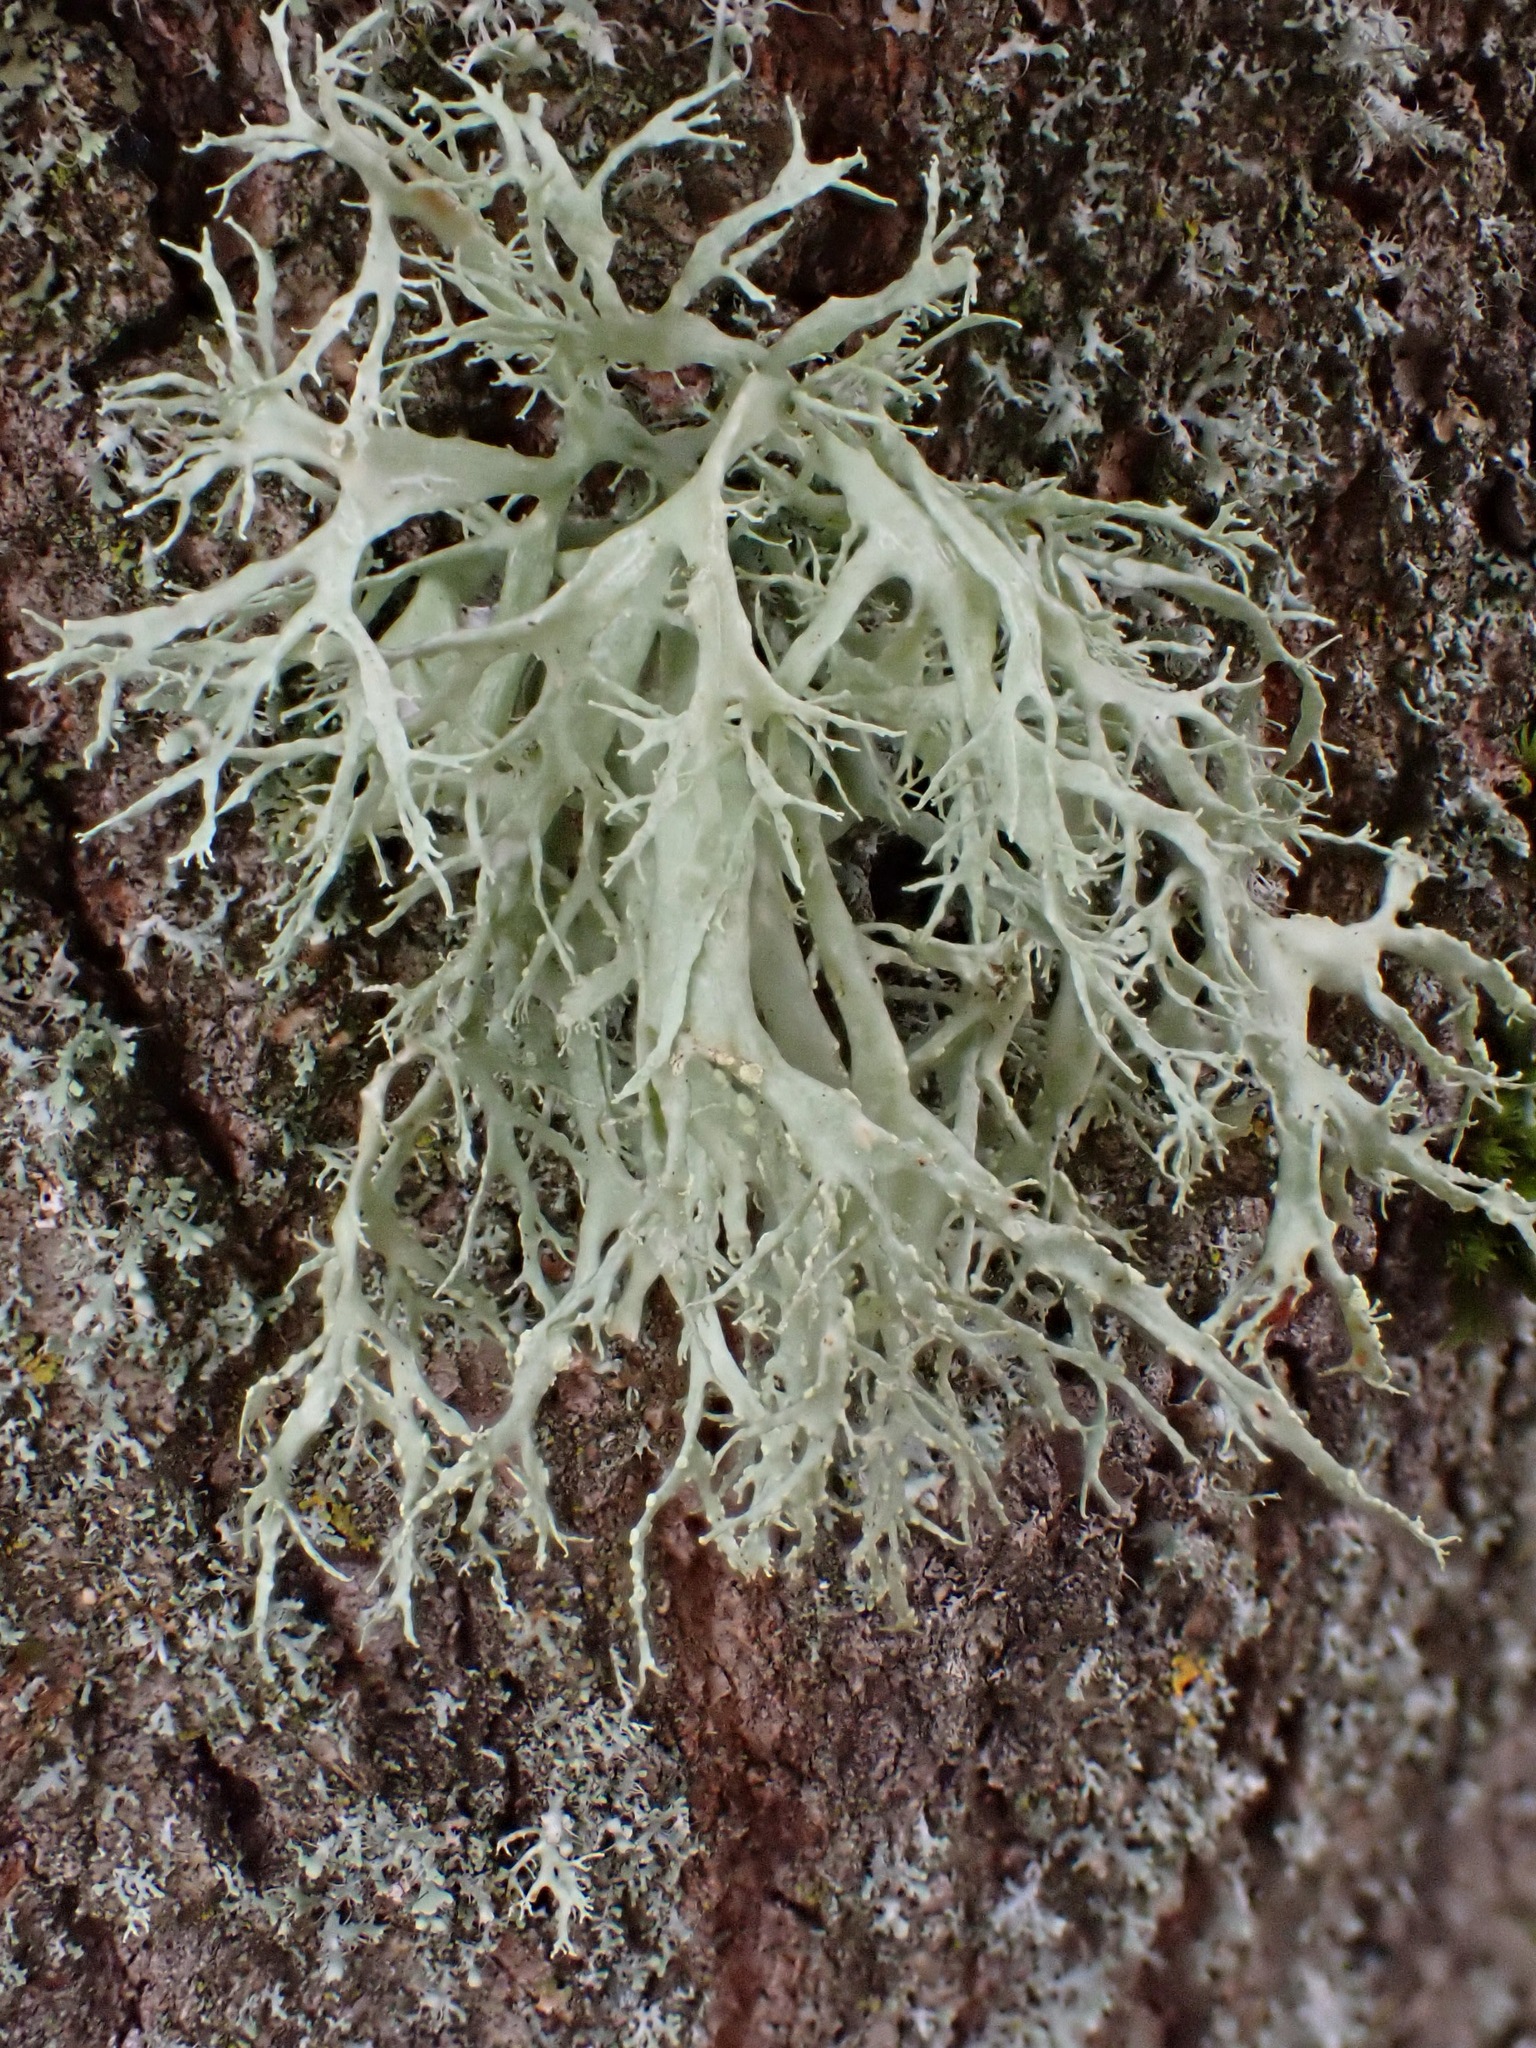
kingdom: Fungi
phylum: Ascomycota
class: Lecanoromycetes
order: Lecanorales
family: Ramalinaceae
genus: Ramalina
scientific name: Ramalina farinacea
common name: Farinose cartilage lichen
